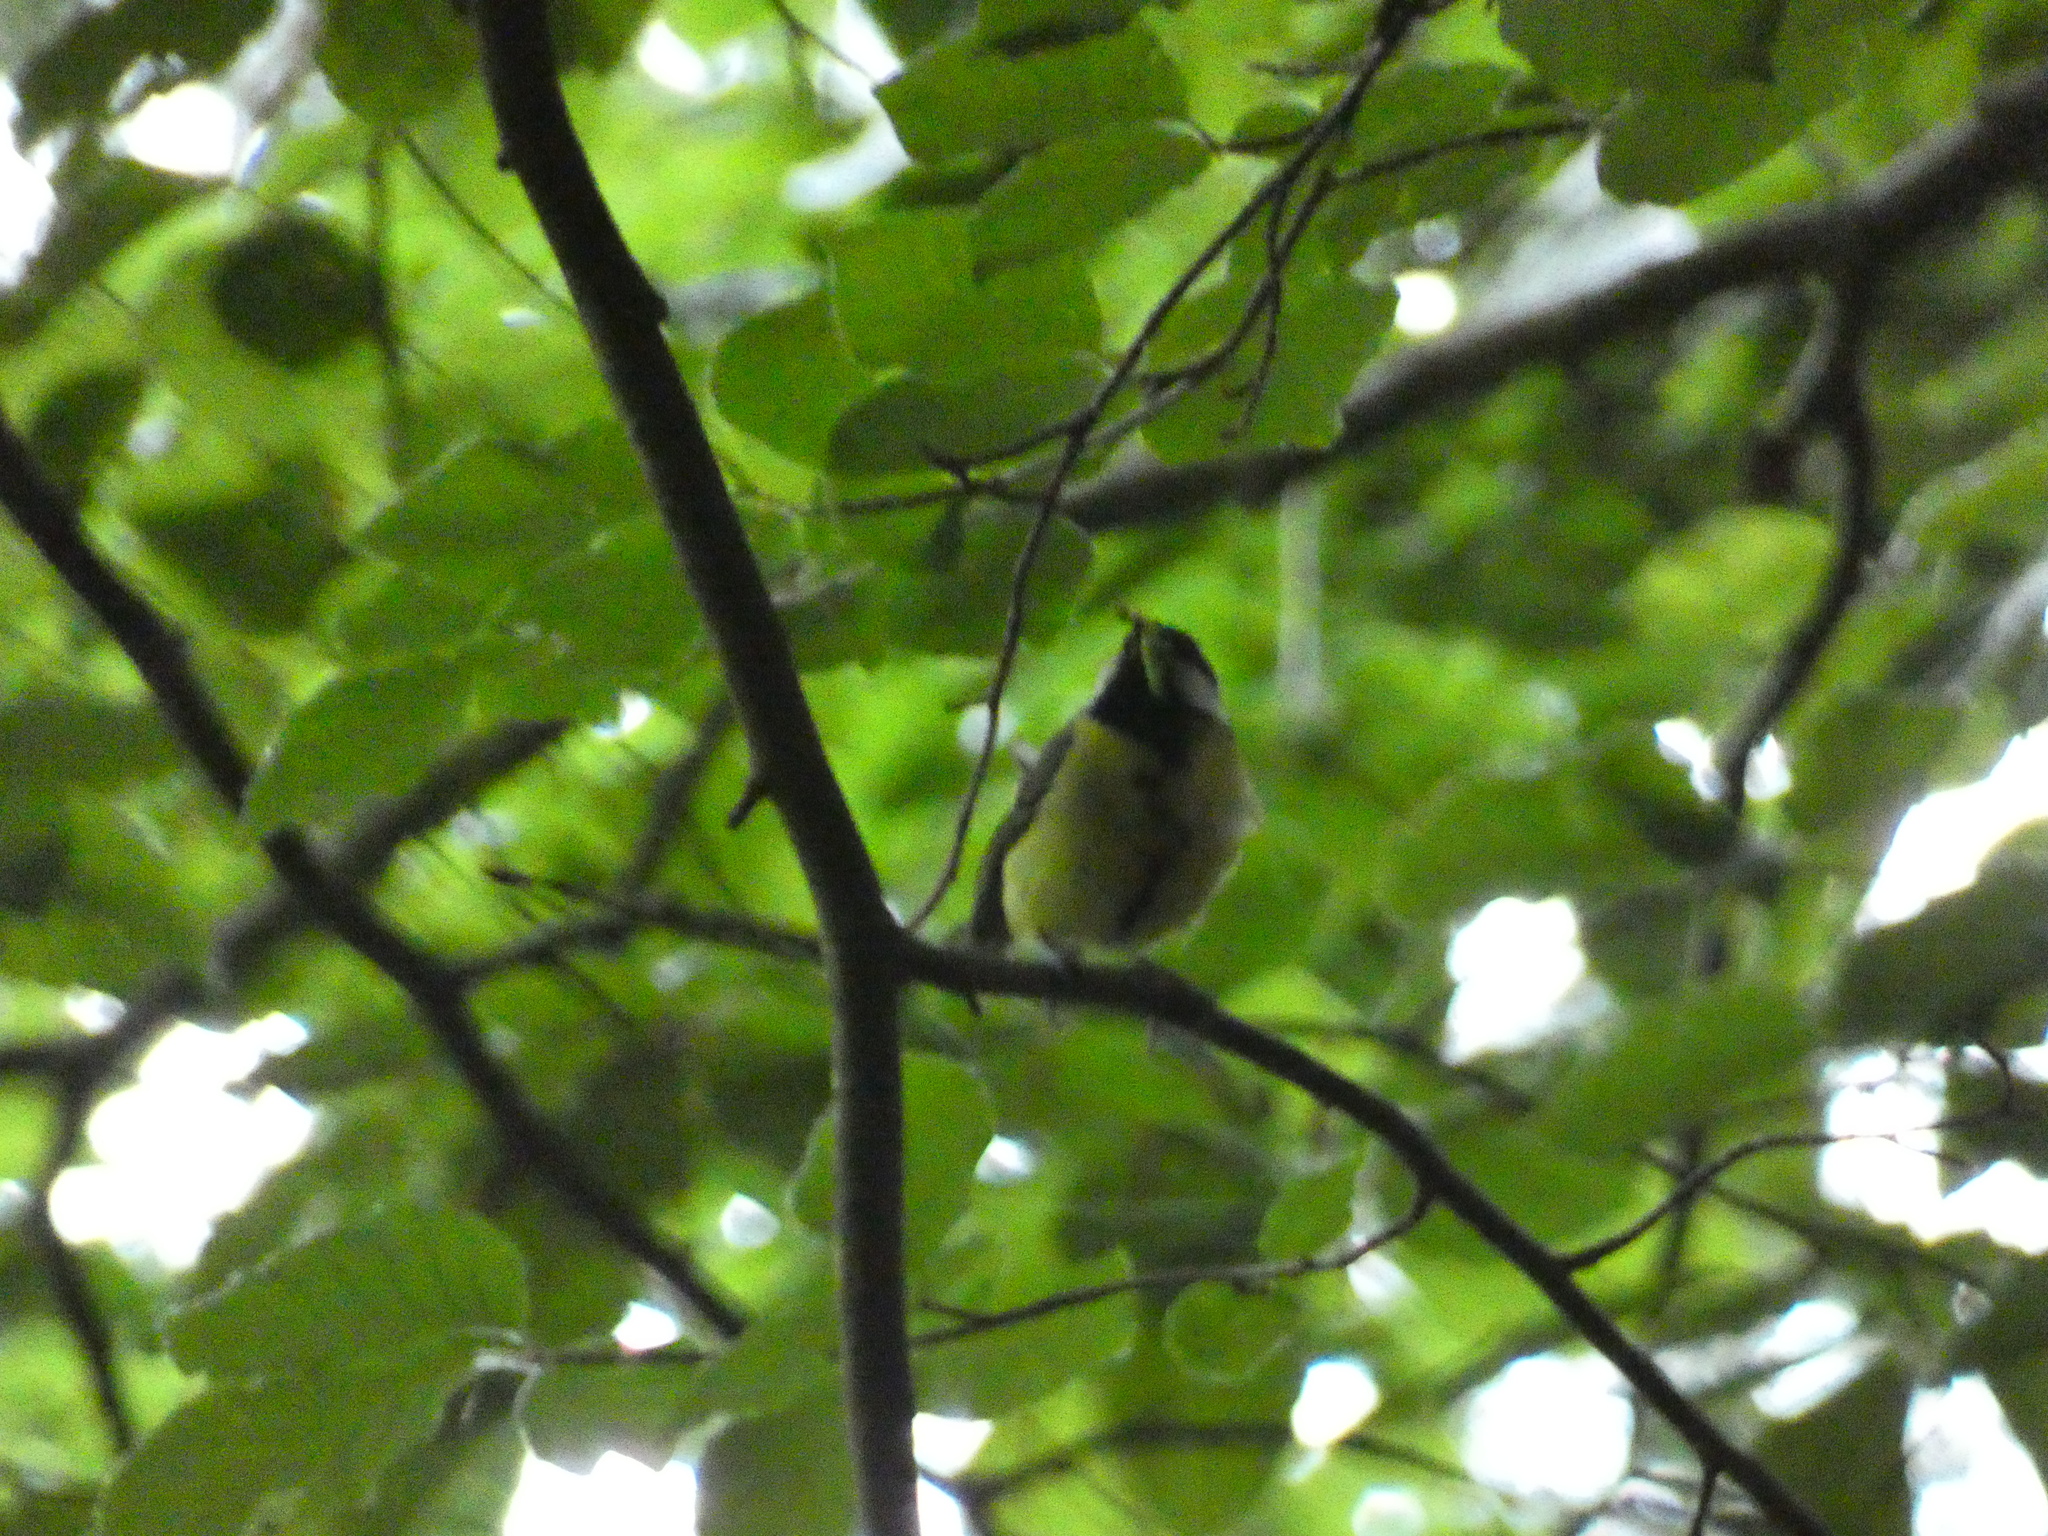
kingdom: Animalia
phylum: Chordata
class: Aves
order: Passeriformes
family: Paridae
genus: Parus
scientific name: Parus major
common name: Great tit
